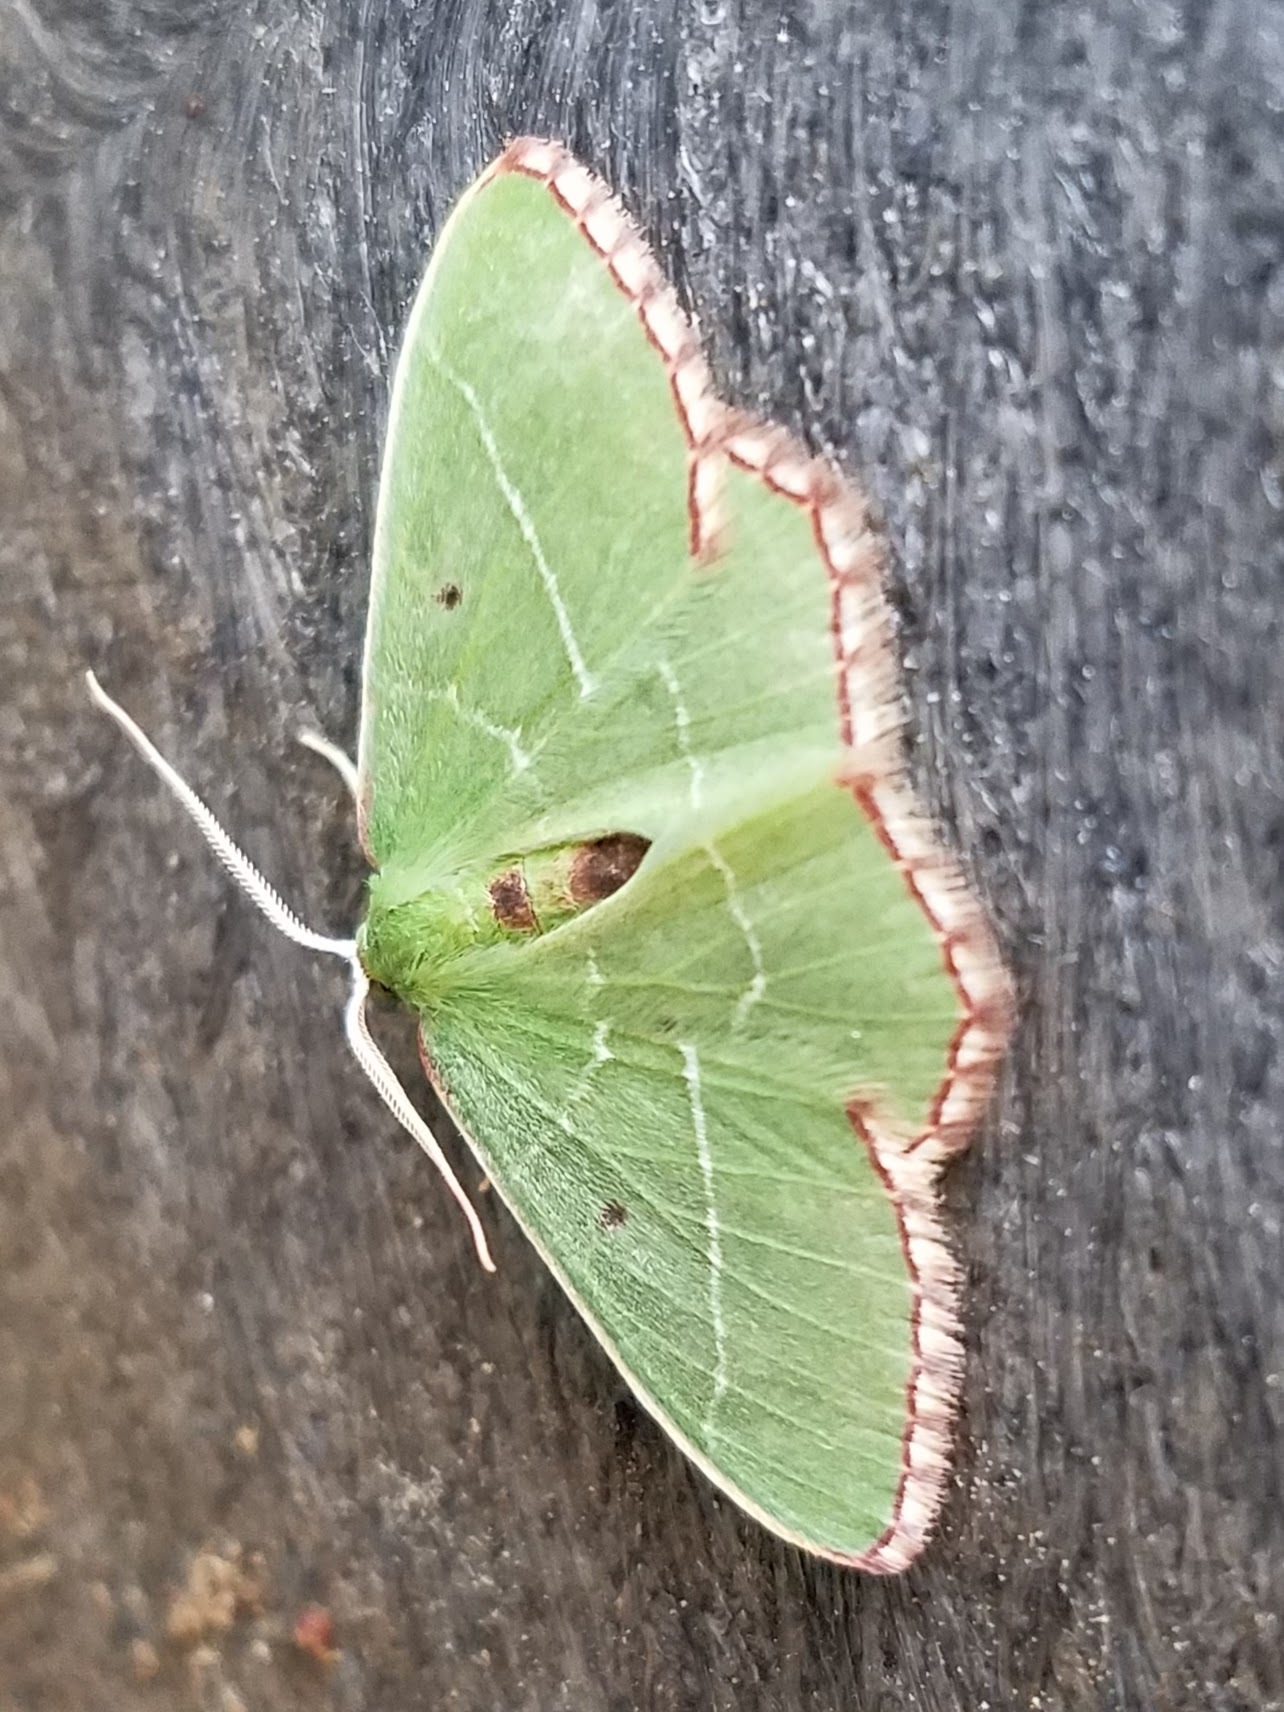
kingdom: Animalia
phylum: Arthropoda
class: Insecta
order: Lepidoptera
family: Geometridae
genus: Nemoria
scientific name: Nemoria saturiba
